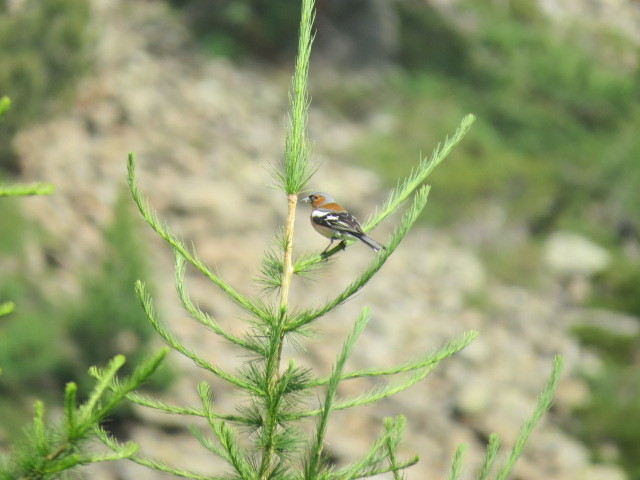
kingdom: Animalia
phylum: Chordata
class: Aves
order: Passeriformes
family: Fringillidae
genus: Fringilla
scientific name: Fringilla coelebs
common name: Common chaffinch
